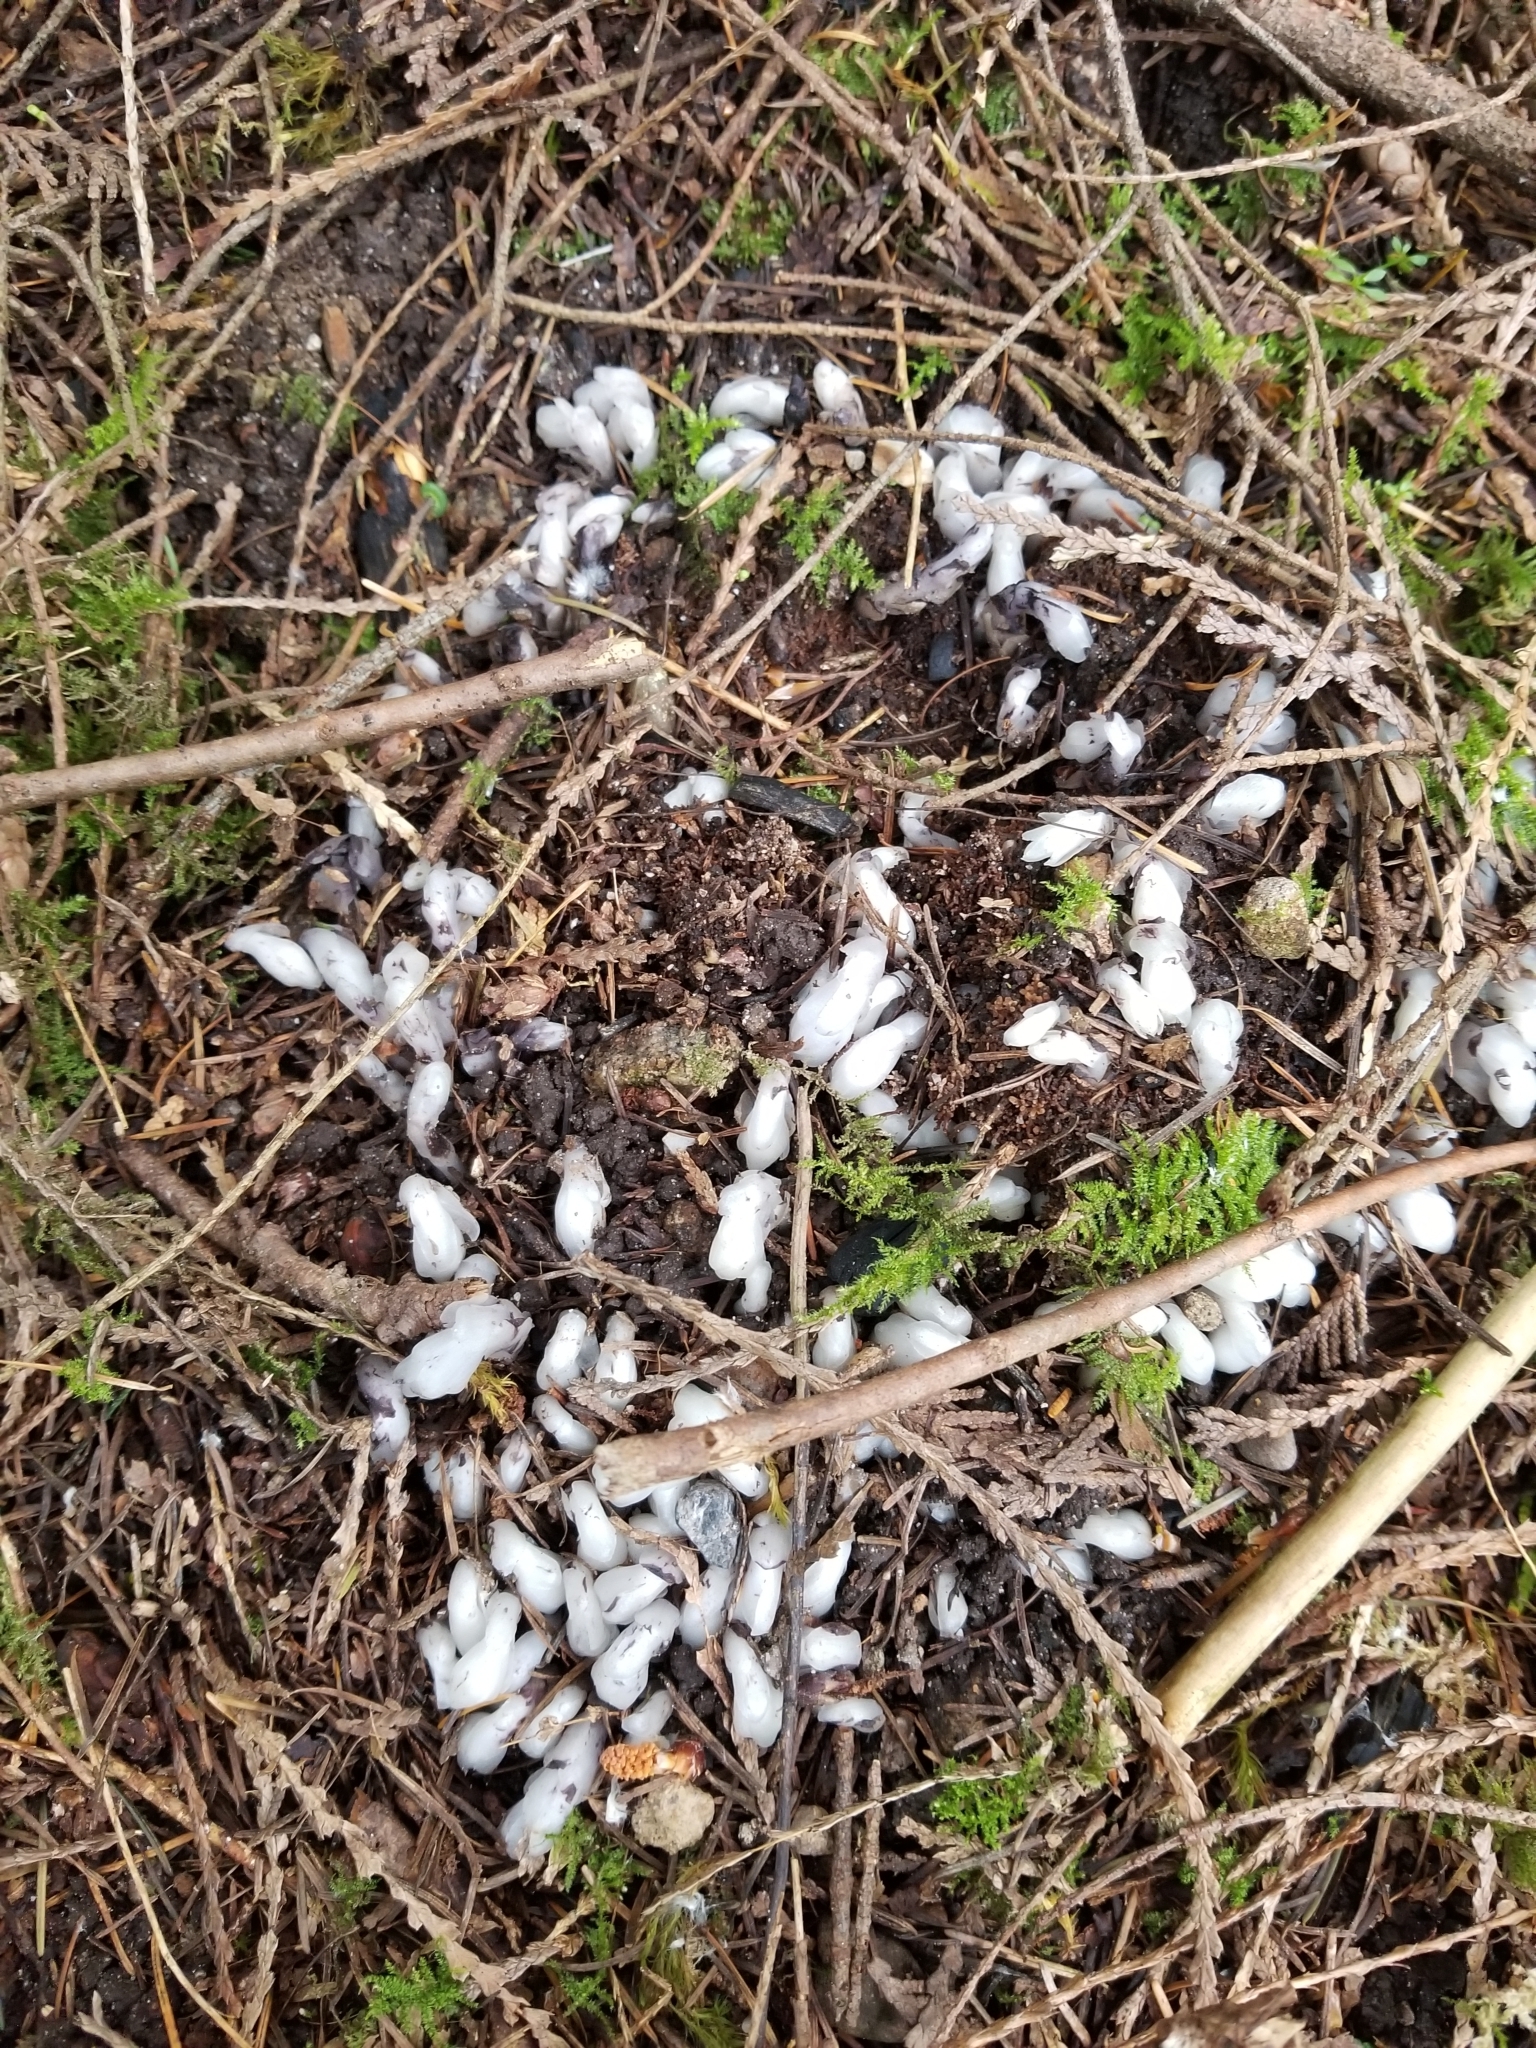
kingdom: Plantae
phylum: Tracheophyta
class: Magnoliopsida
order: Ericales
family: Ericaceae
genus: Monotropa
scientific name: Monotropa uniflora
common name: Convulsion root
